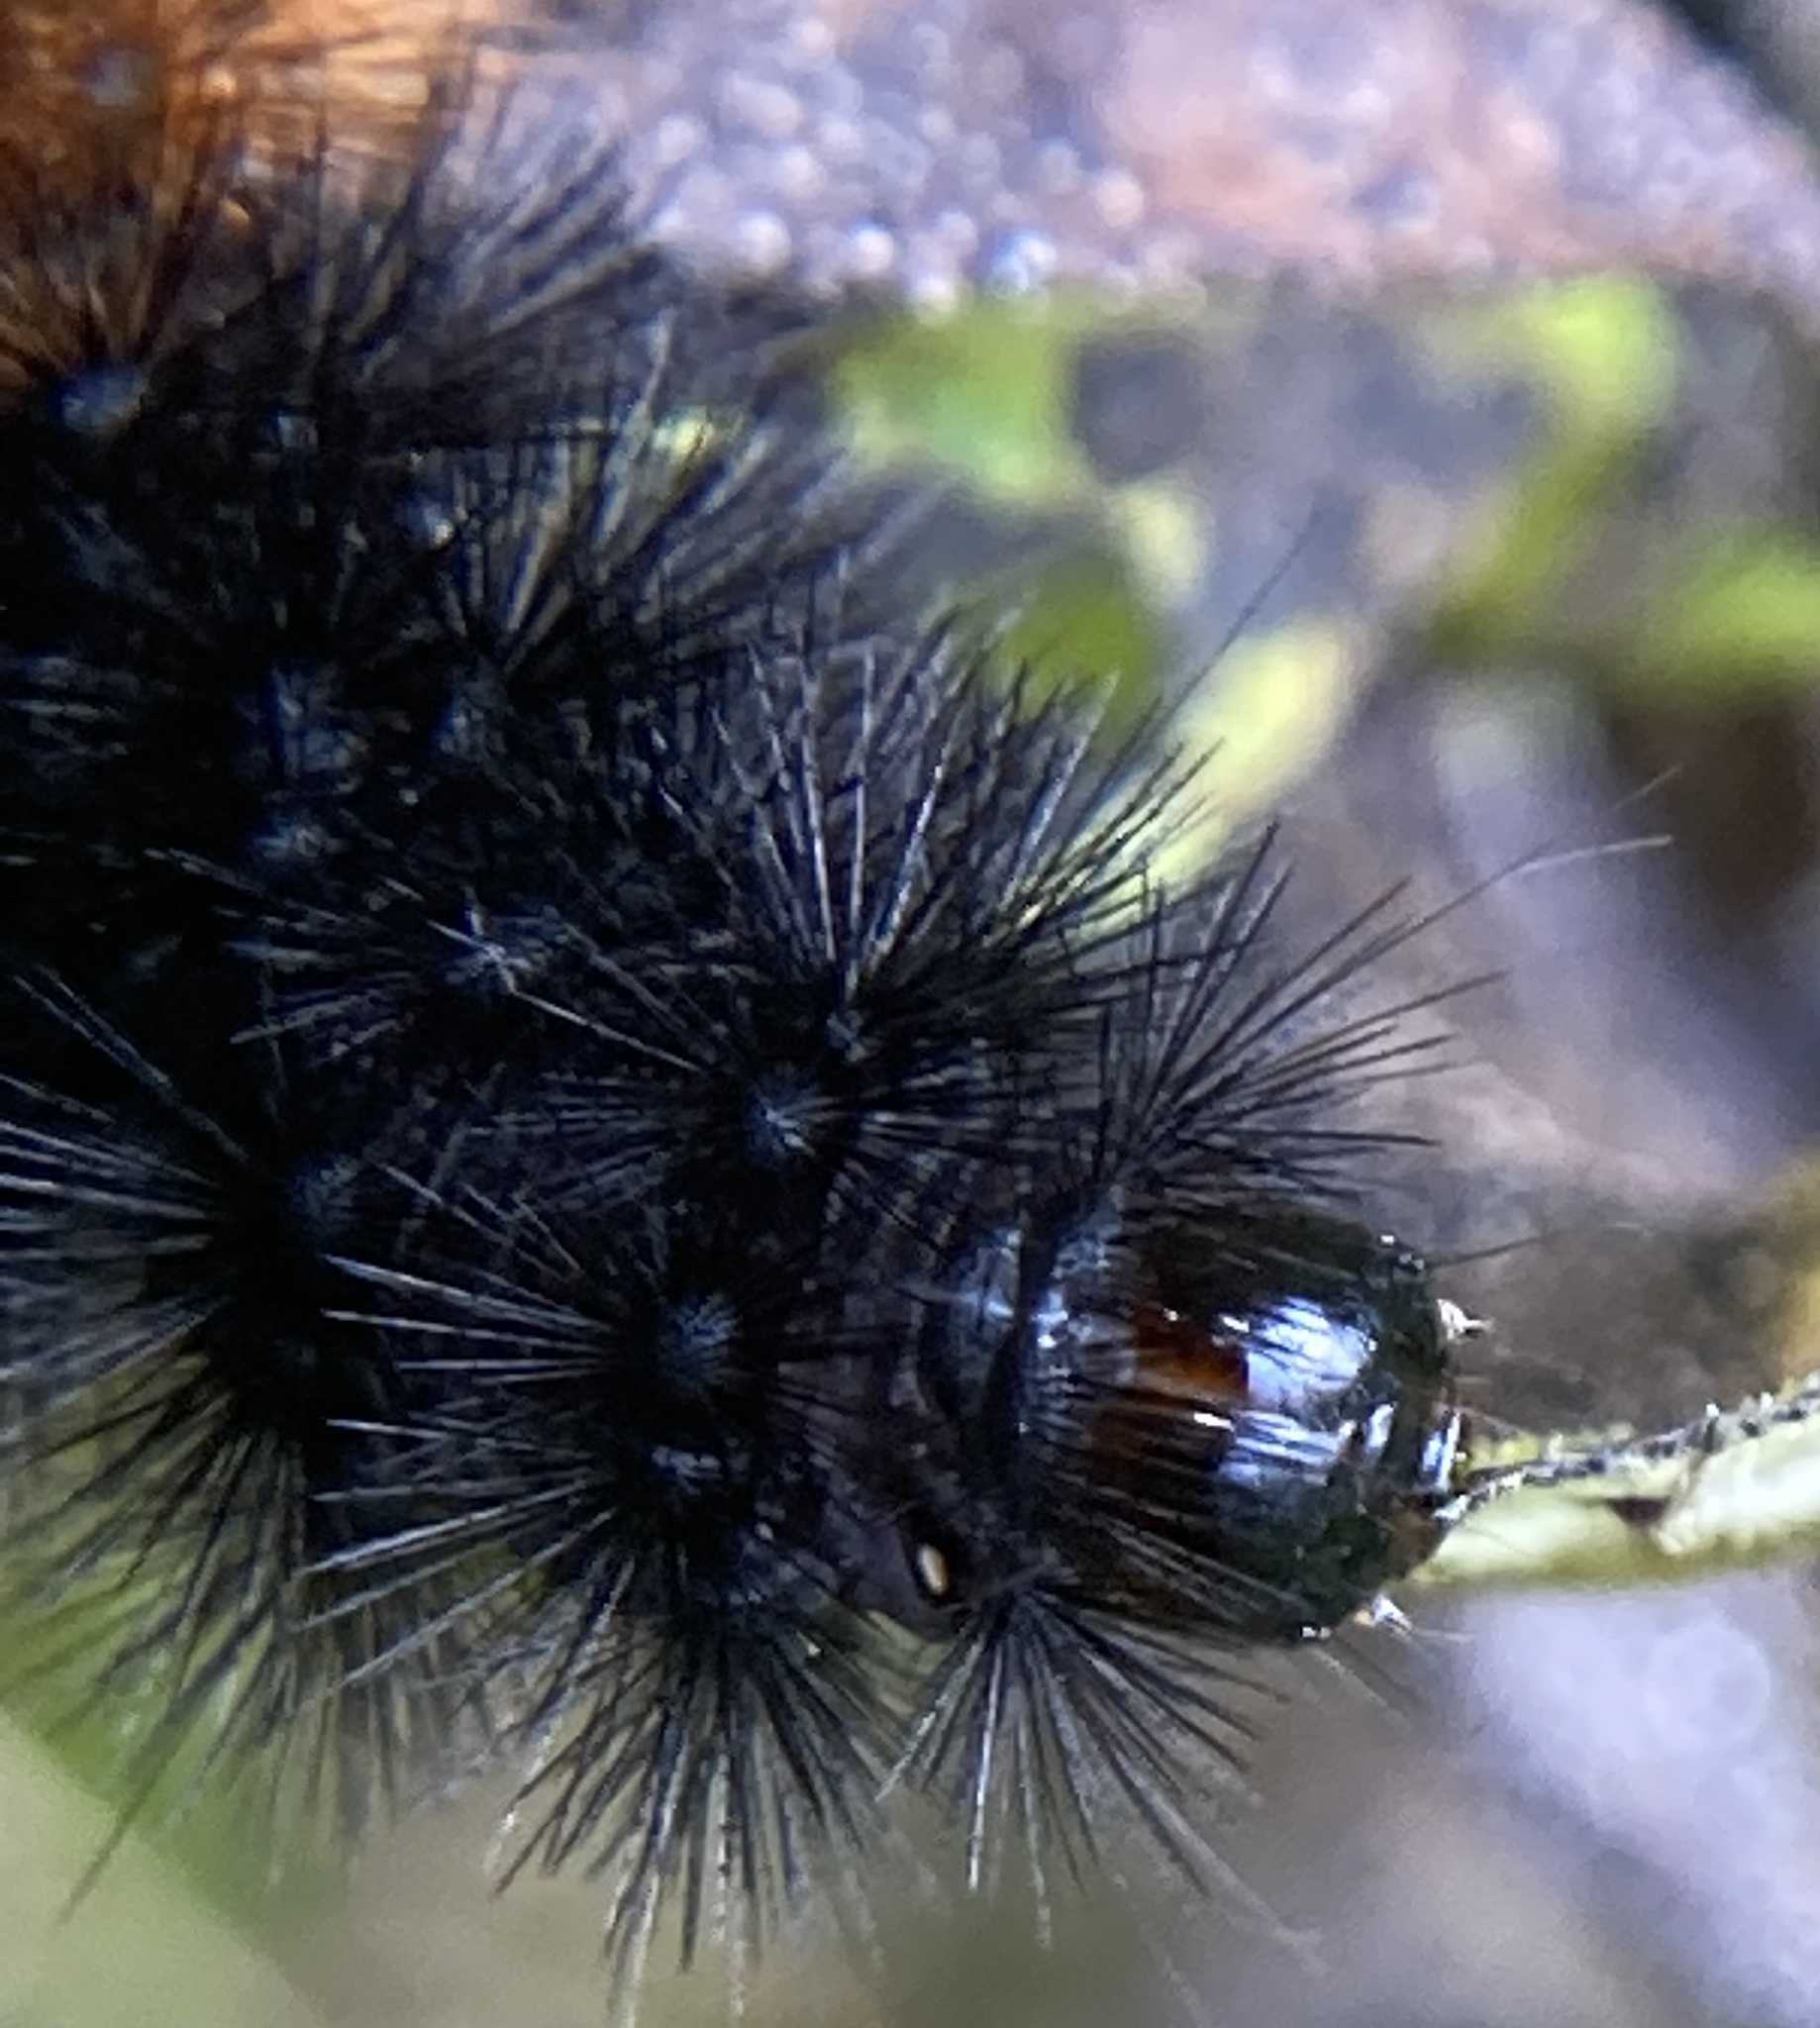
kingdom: Animalia
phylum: Arthropoda
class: Insecta
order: Lepidoptera
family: Erebidae
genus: Pyrrharctia
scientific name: Pyrrharctia isabella
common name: Isabella tiger moth
